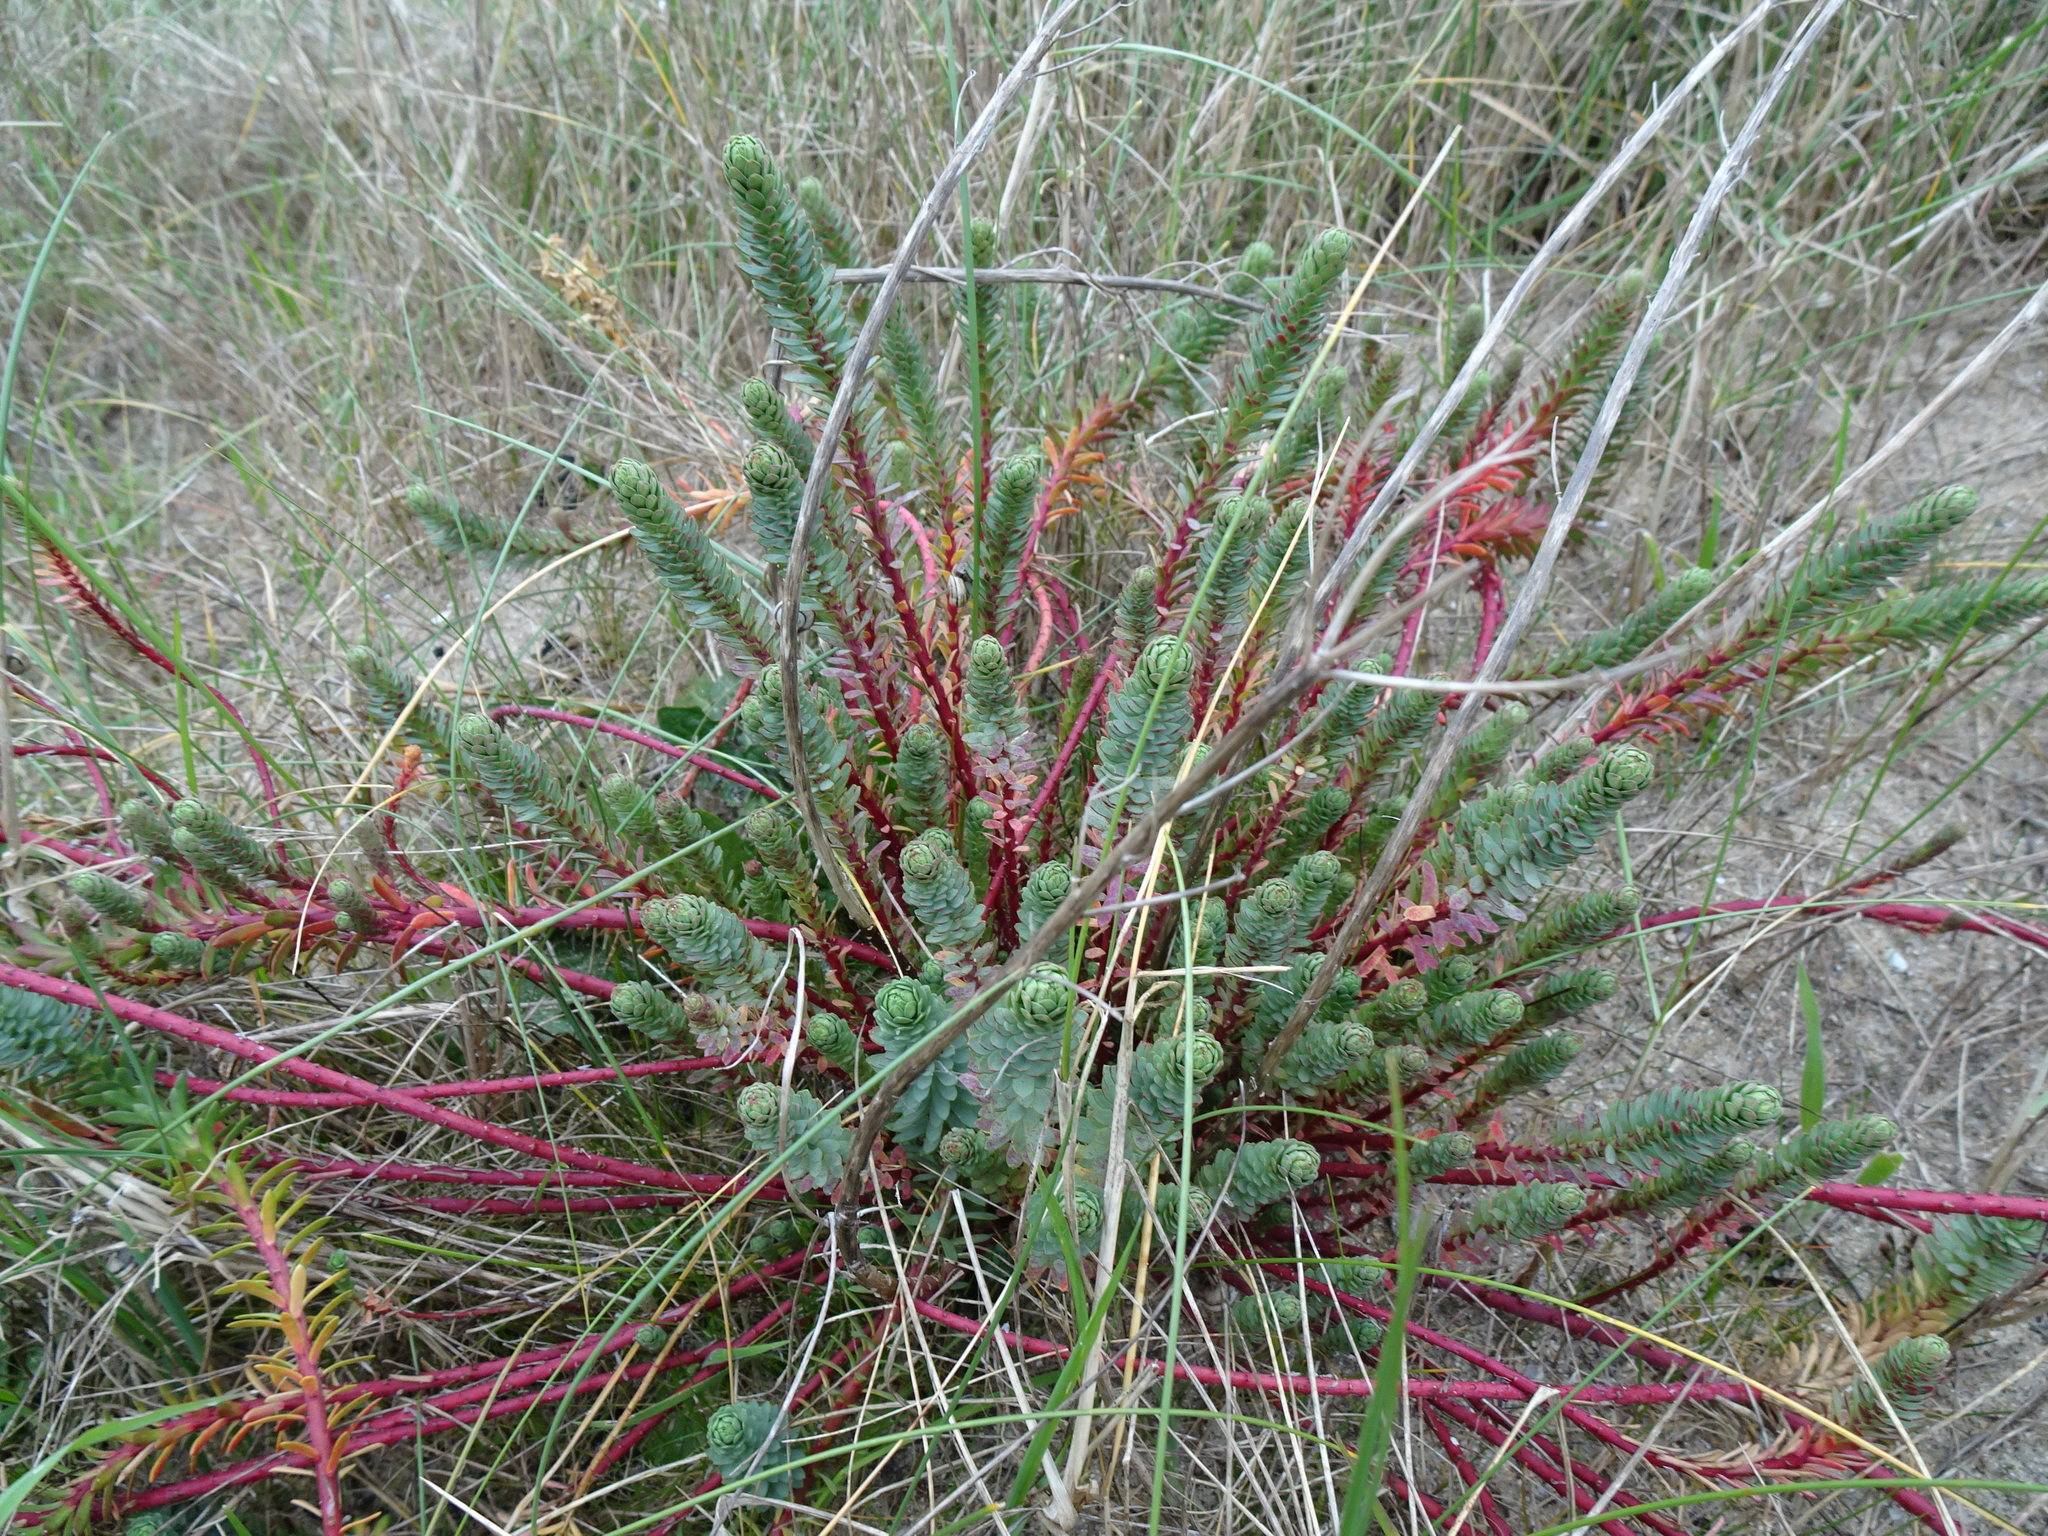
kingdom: Plantae
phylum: Tracheophyta
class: Magnoliopsida
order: Malpighiales
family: Euphorbiaceae
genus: Euphorbia
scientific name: Euphorbia paralias
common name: Sea spurge
